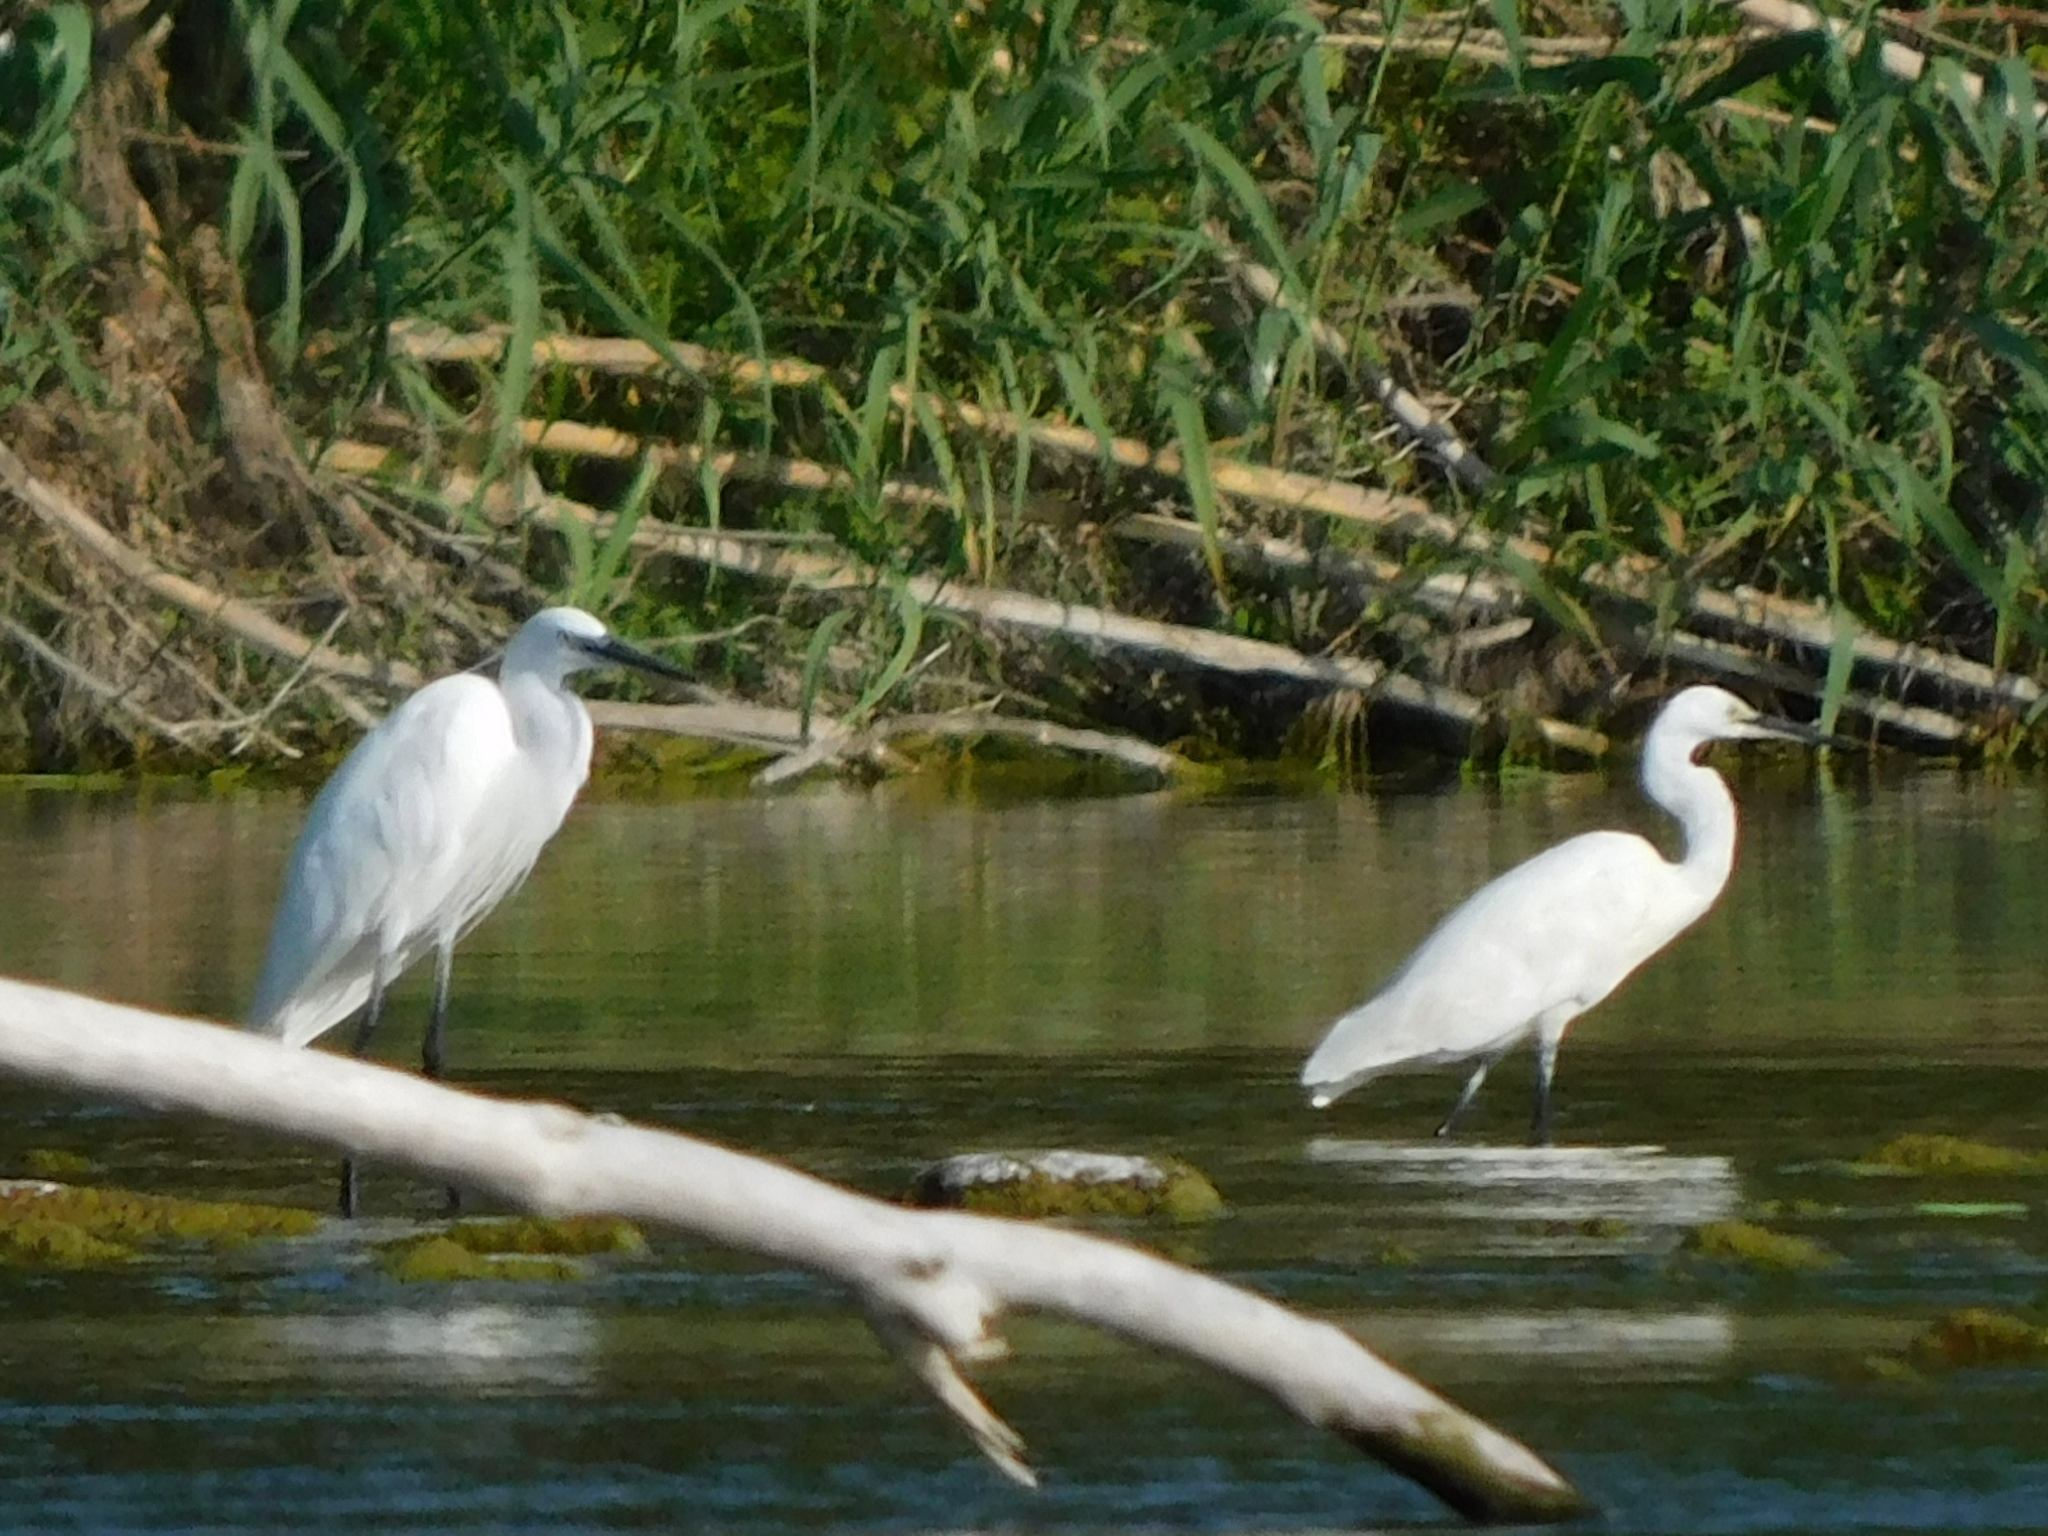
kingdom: Animalia
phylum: Chordata
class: Aves
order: Pelecaniformes
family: Ardeidae
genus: Egretta
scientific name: Egretta garzetta
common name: Little egret
